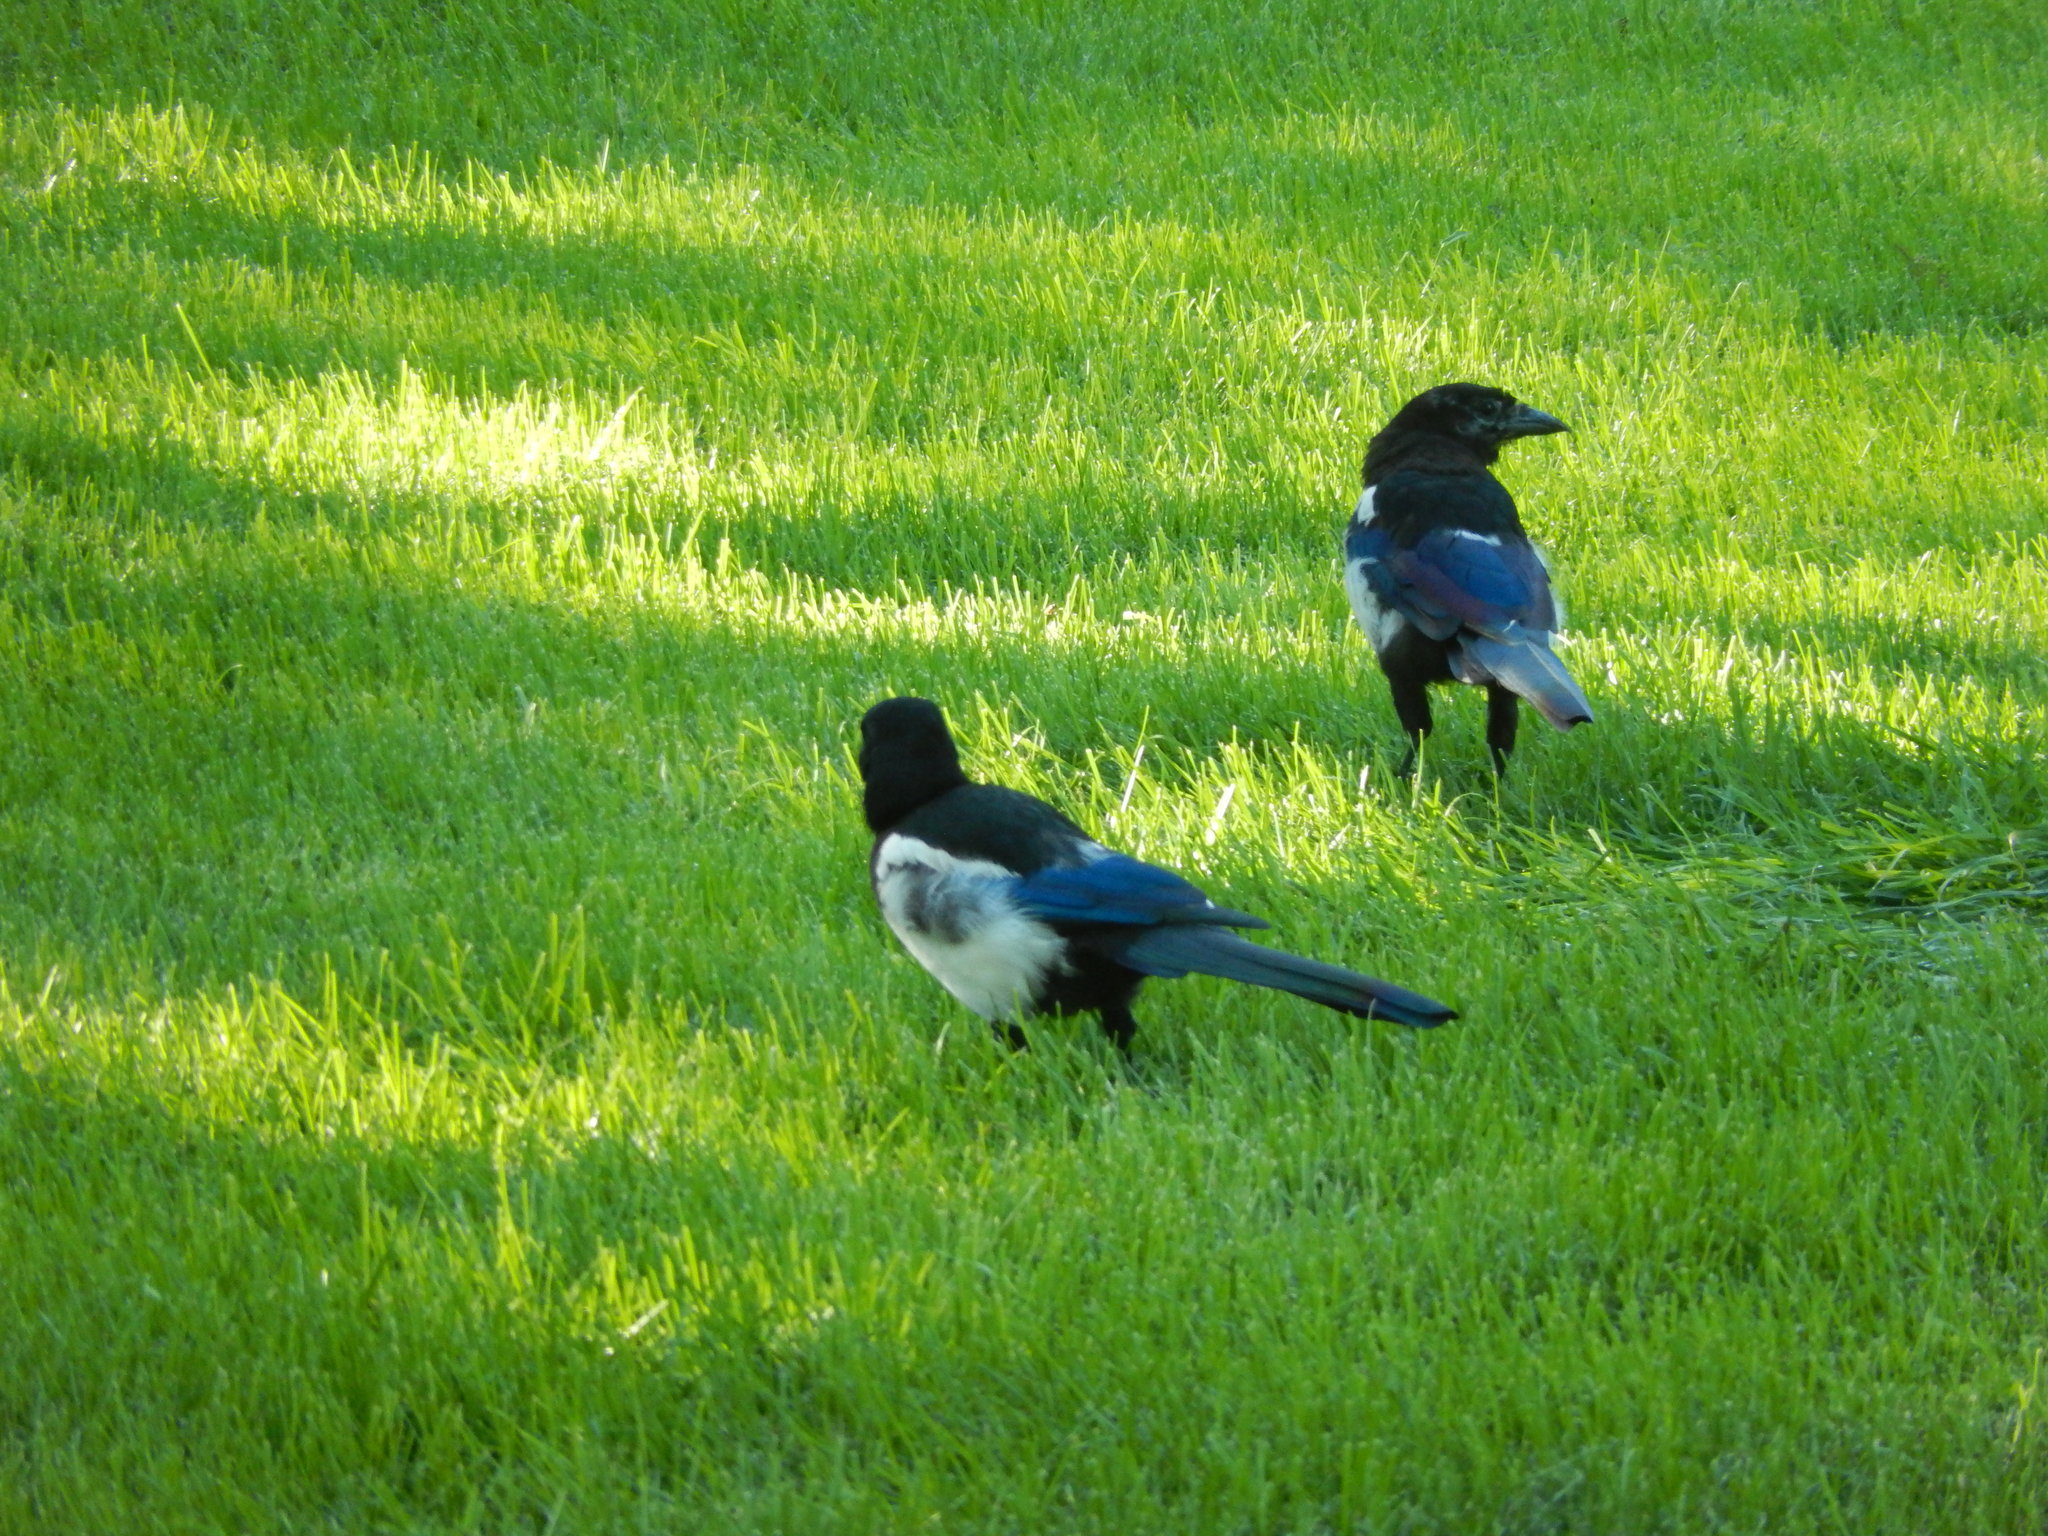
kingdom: Animalia
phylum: Chordata
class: Aves
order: Passeriformes
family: Corvidae
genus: Pica
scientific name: Pica serica
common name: Oriental magpie
